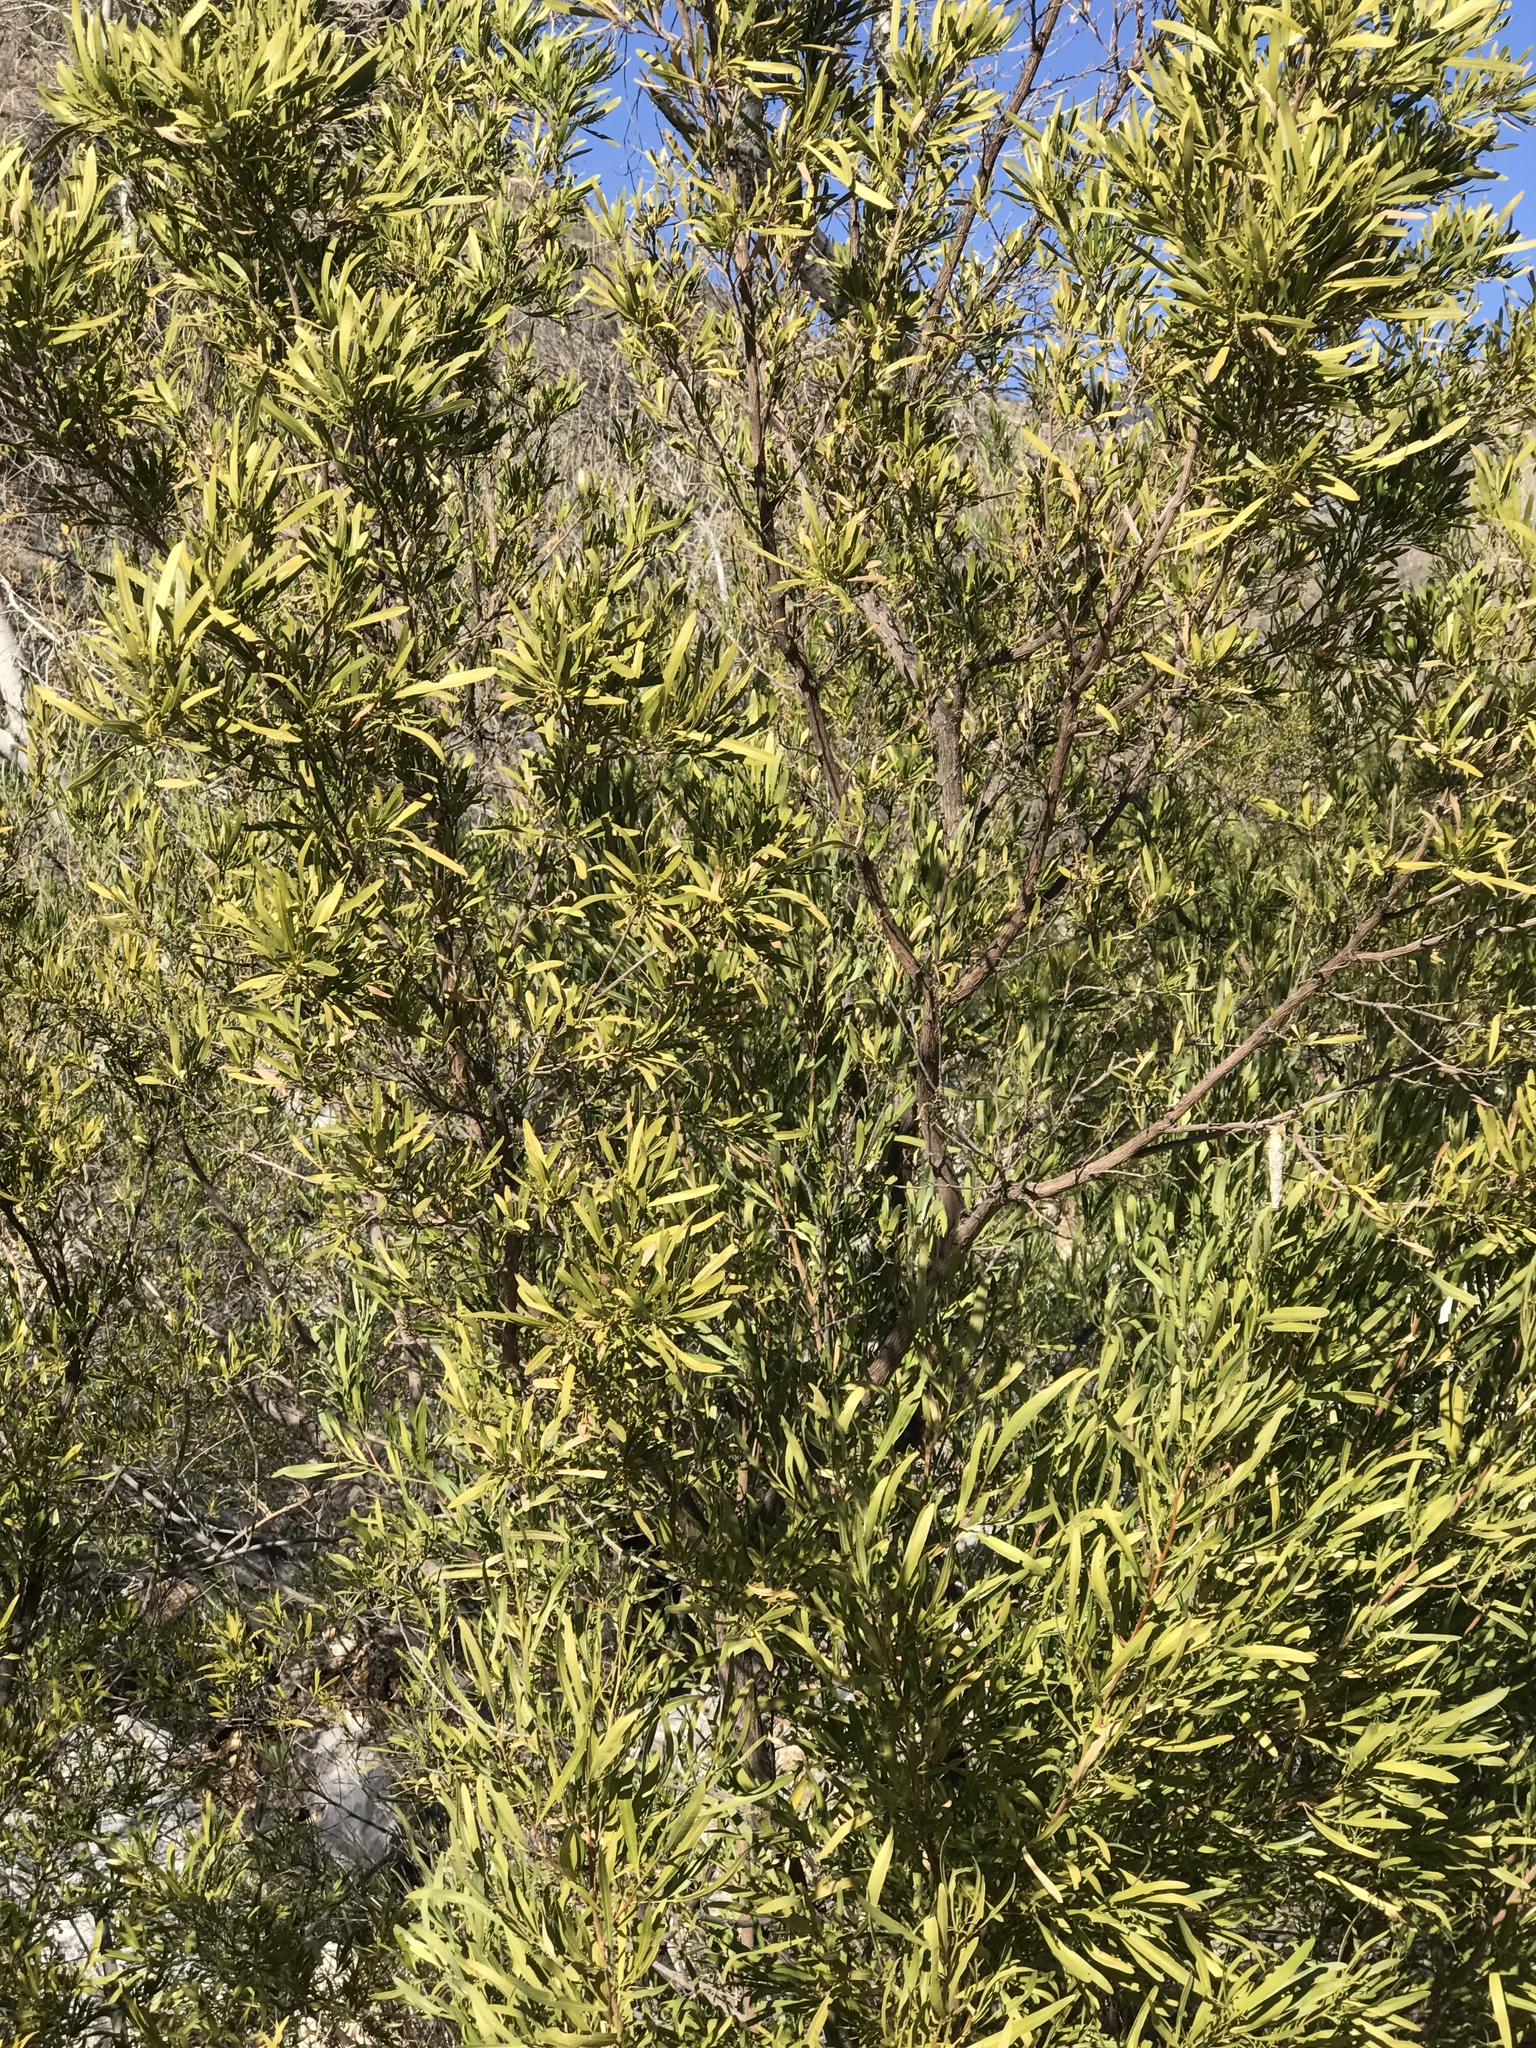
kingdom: Plantae
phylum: Tracheophyta
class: Magnoliopsida
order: Sapindales
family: Sapindaceae
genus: Dodonaea
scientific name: Dodonaea viscosa
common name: Hopbush
